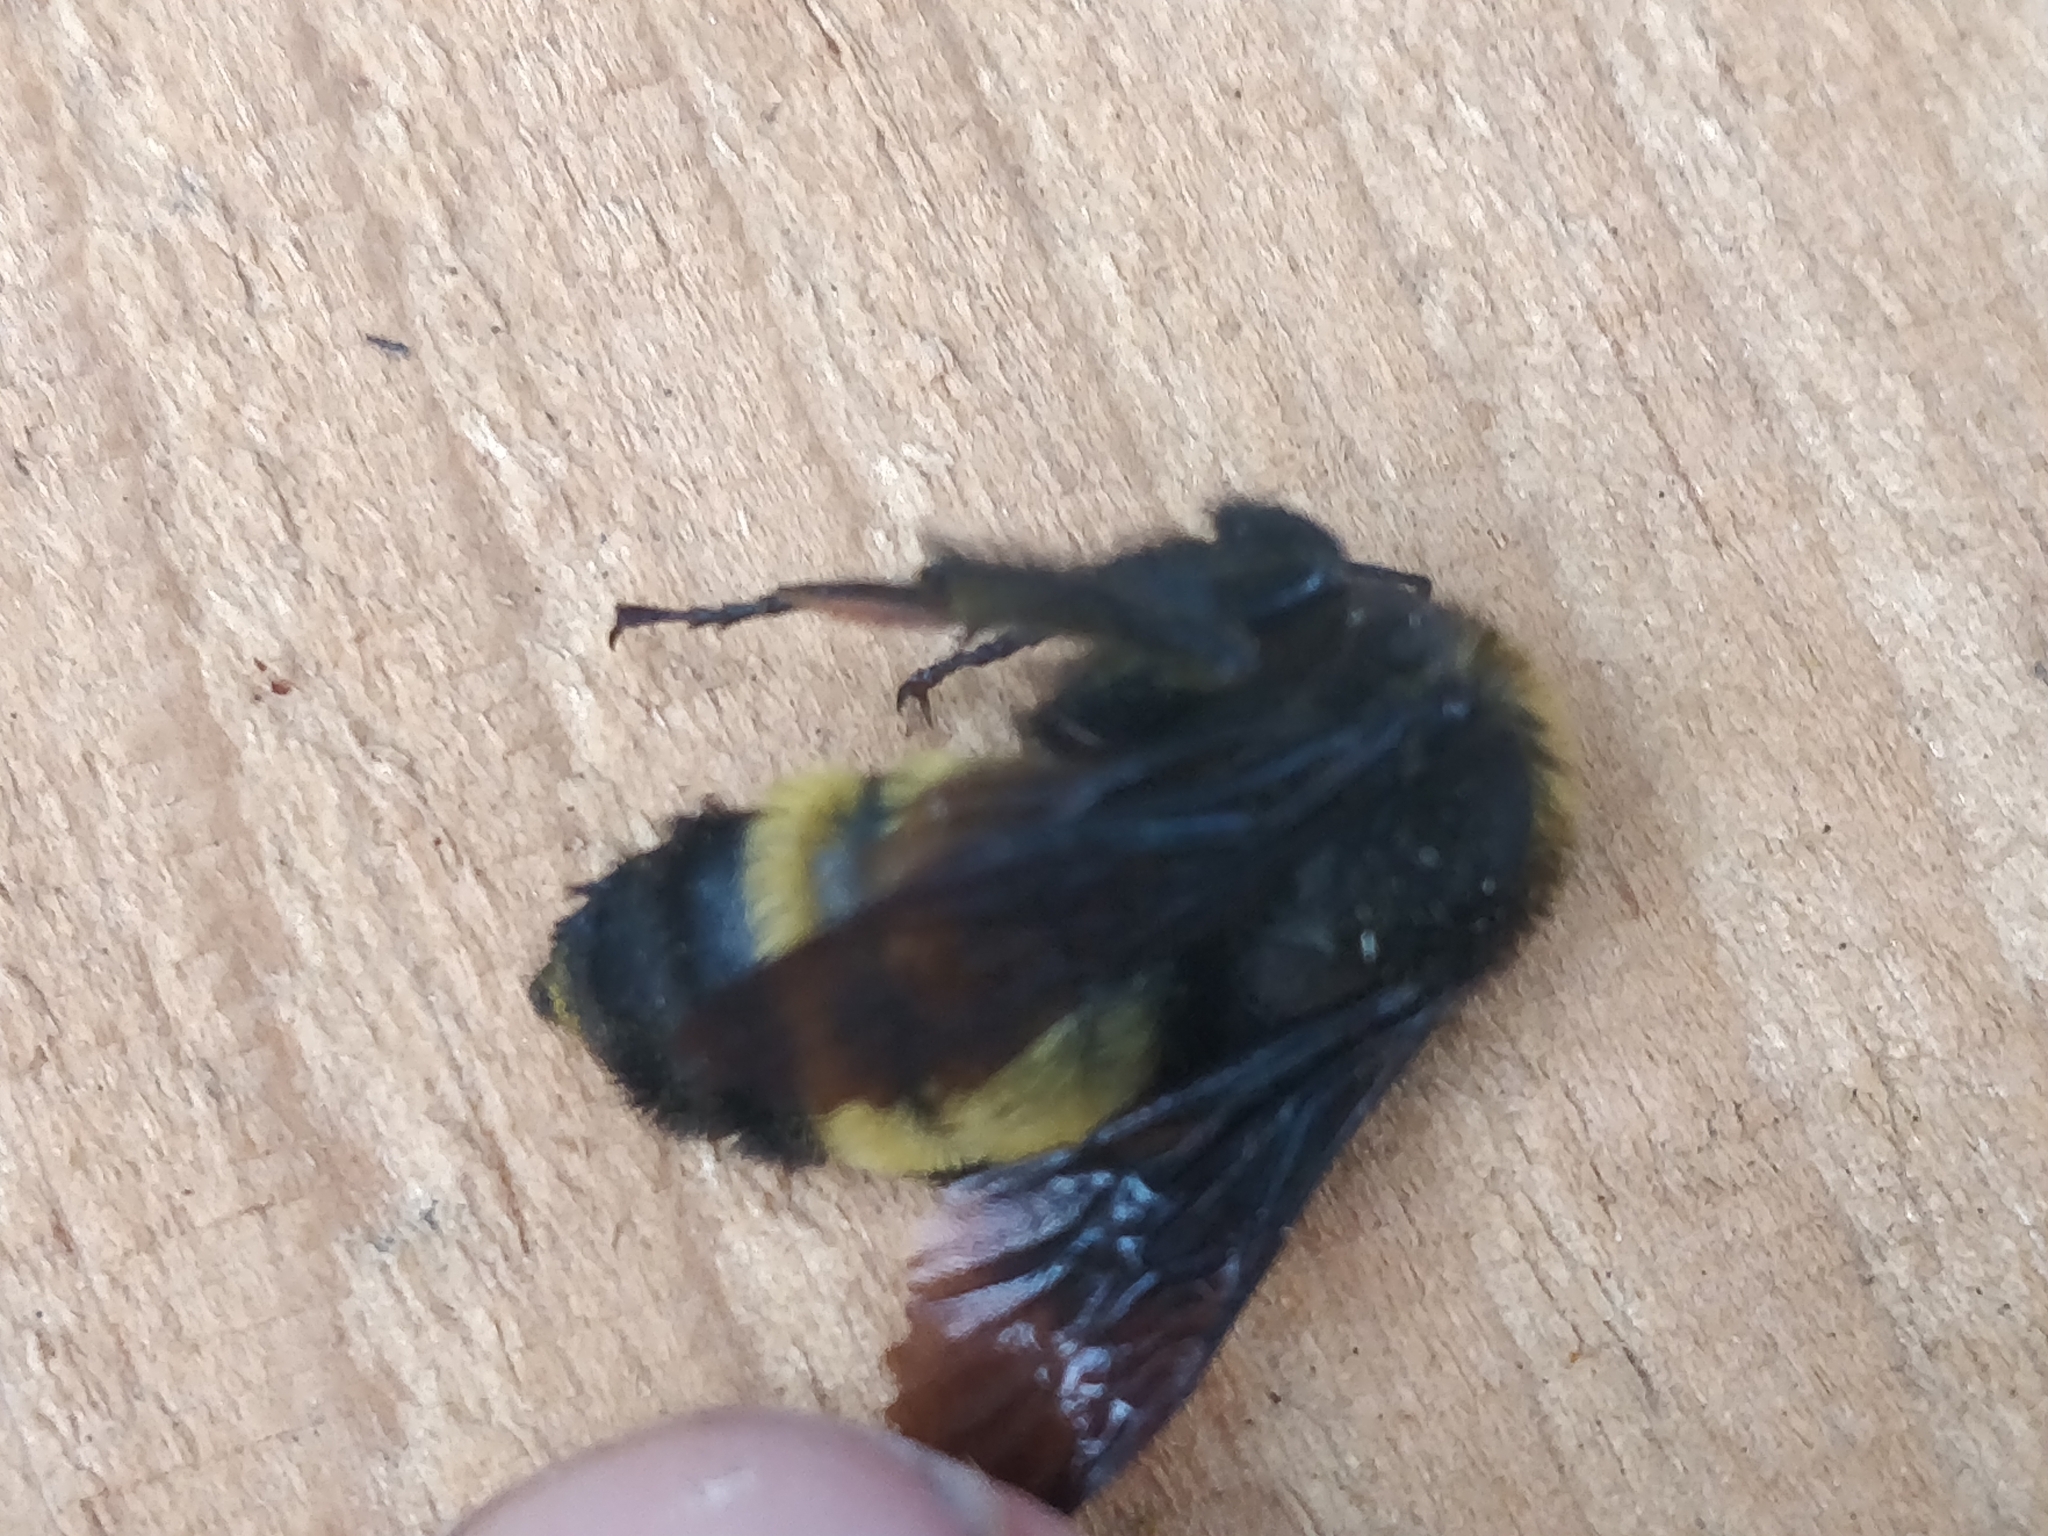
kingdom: Animalia
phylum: Arthropoda
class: Insecta
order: Hymenoptera
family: Apidae
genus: Bombus
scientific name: Bombus pensylvanicus
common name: Bumble bee
